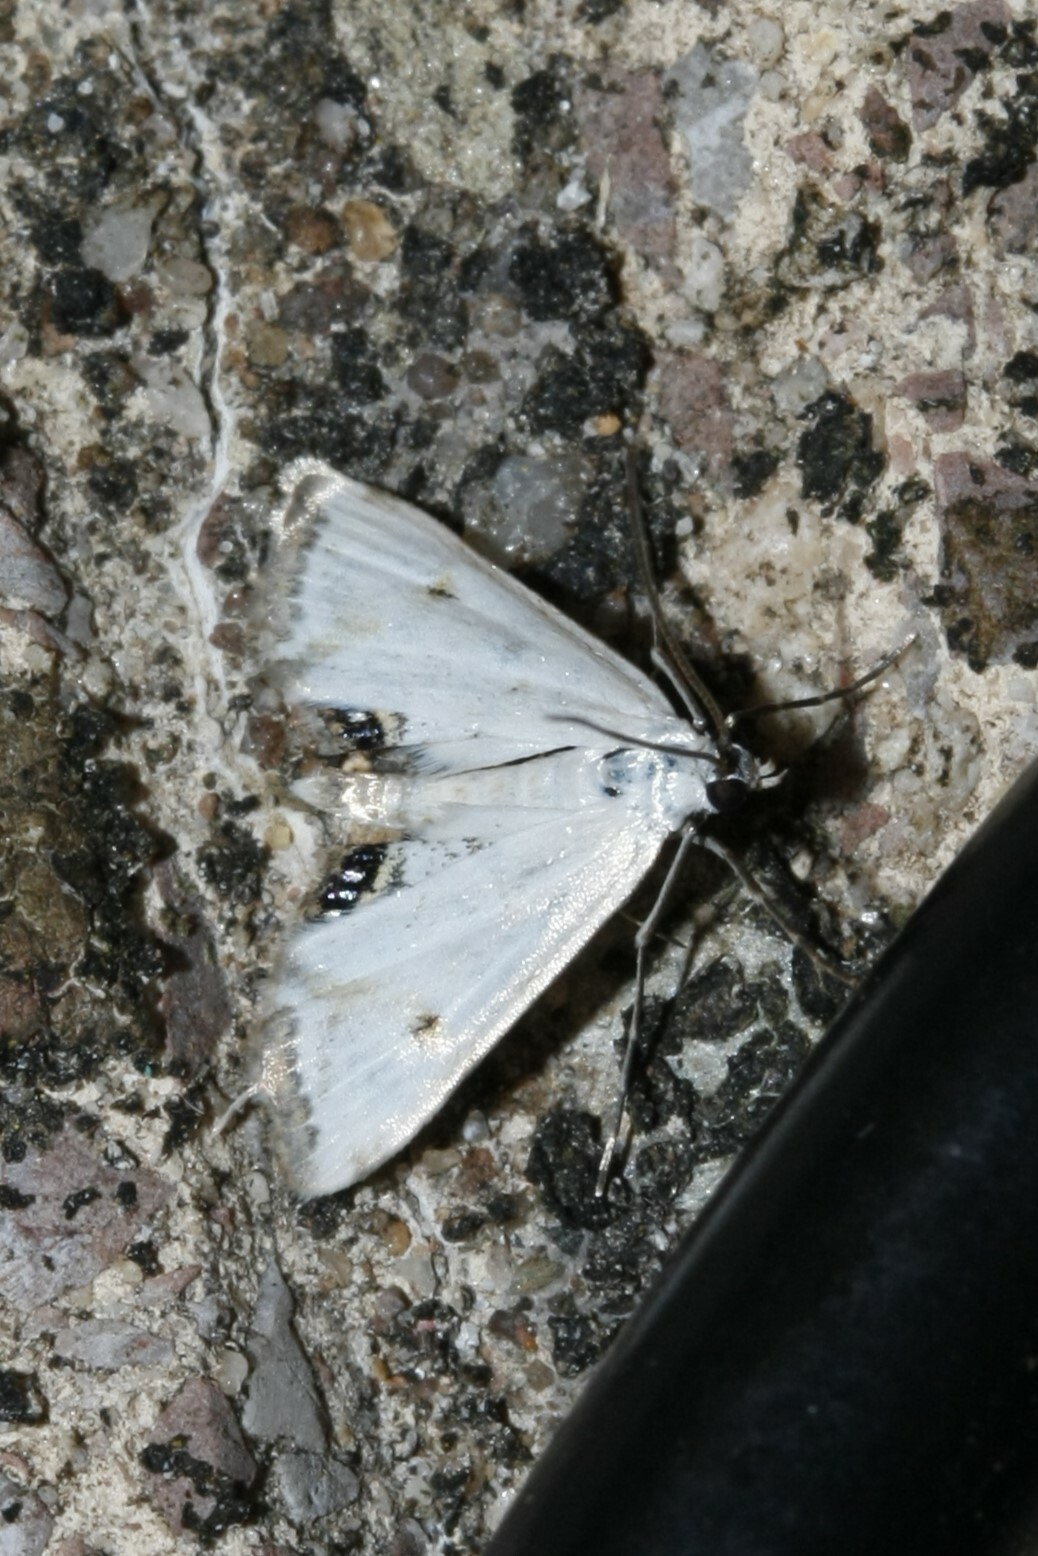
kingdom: Animalia
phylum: Arthropoda
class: Insecta
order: Lepidoptera
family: Crambidae
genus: Cataclysta
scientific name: Cataclysta lemnata
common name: Small china-mark
